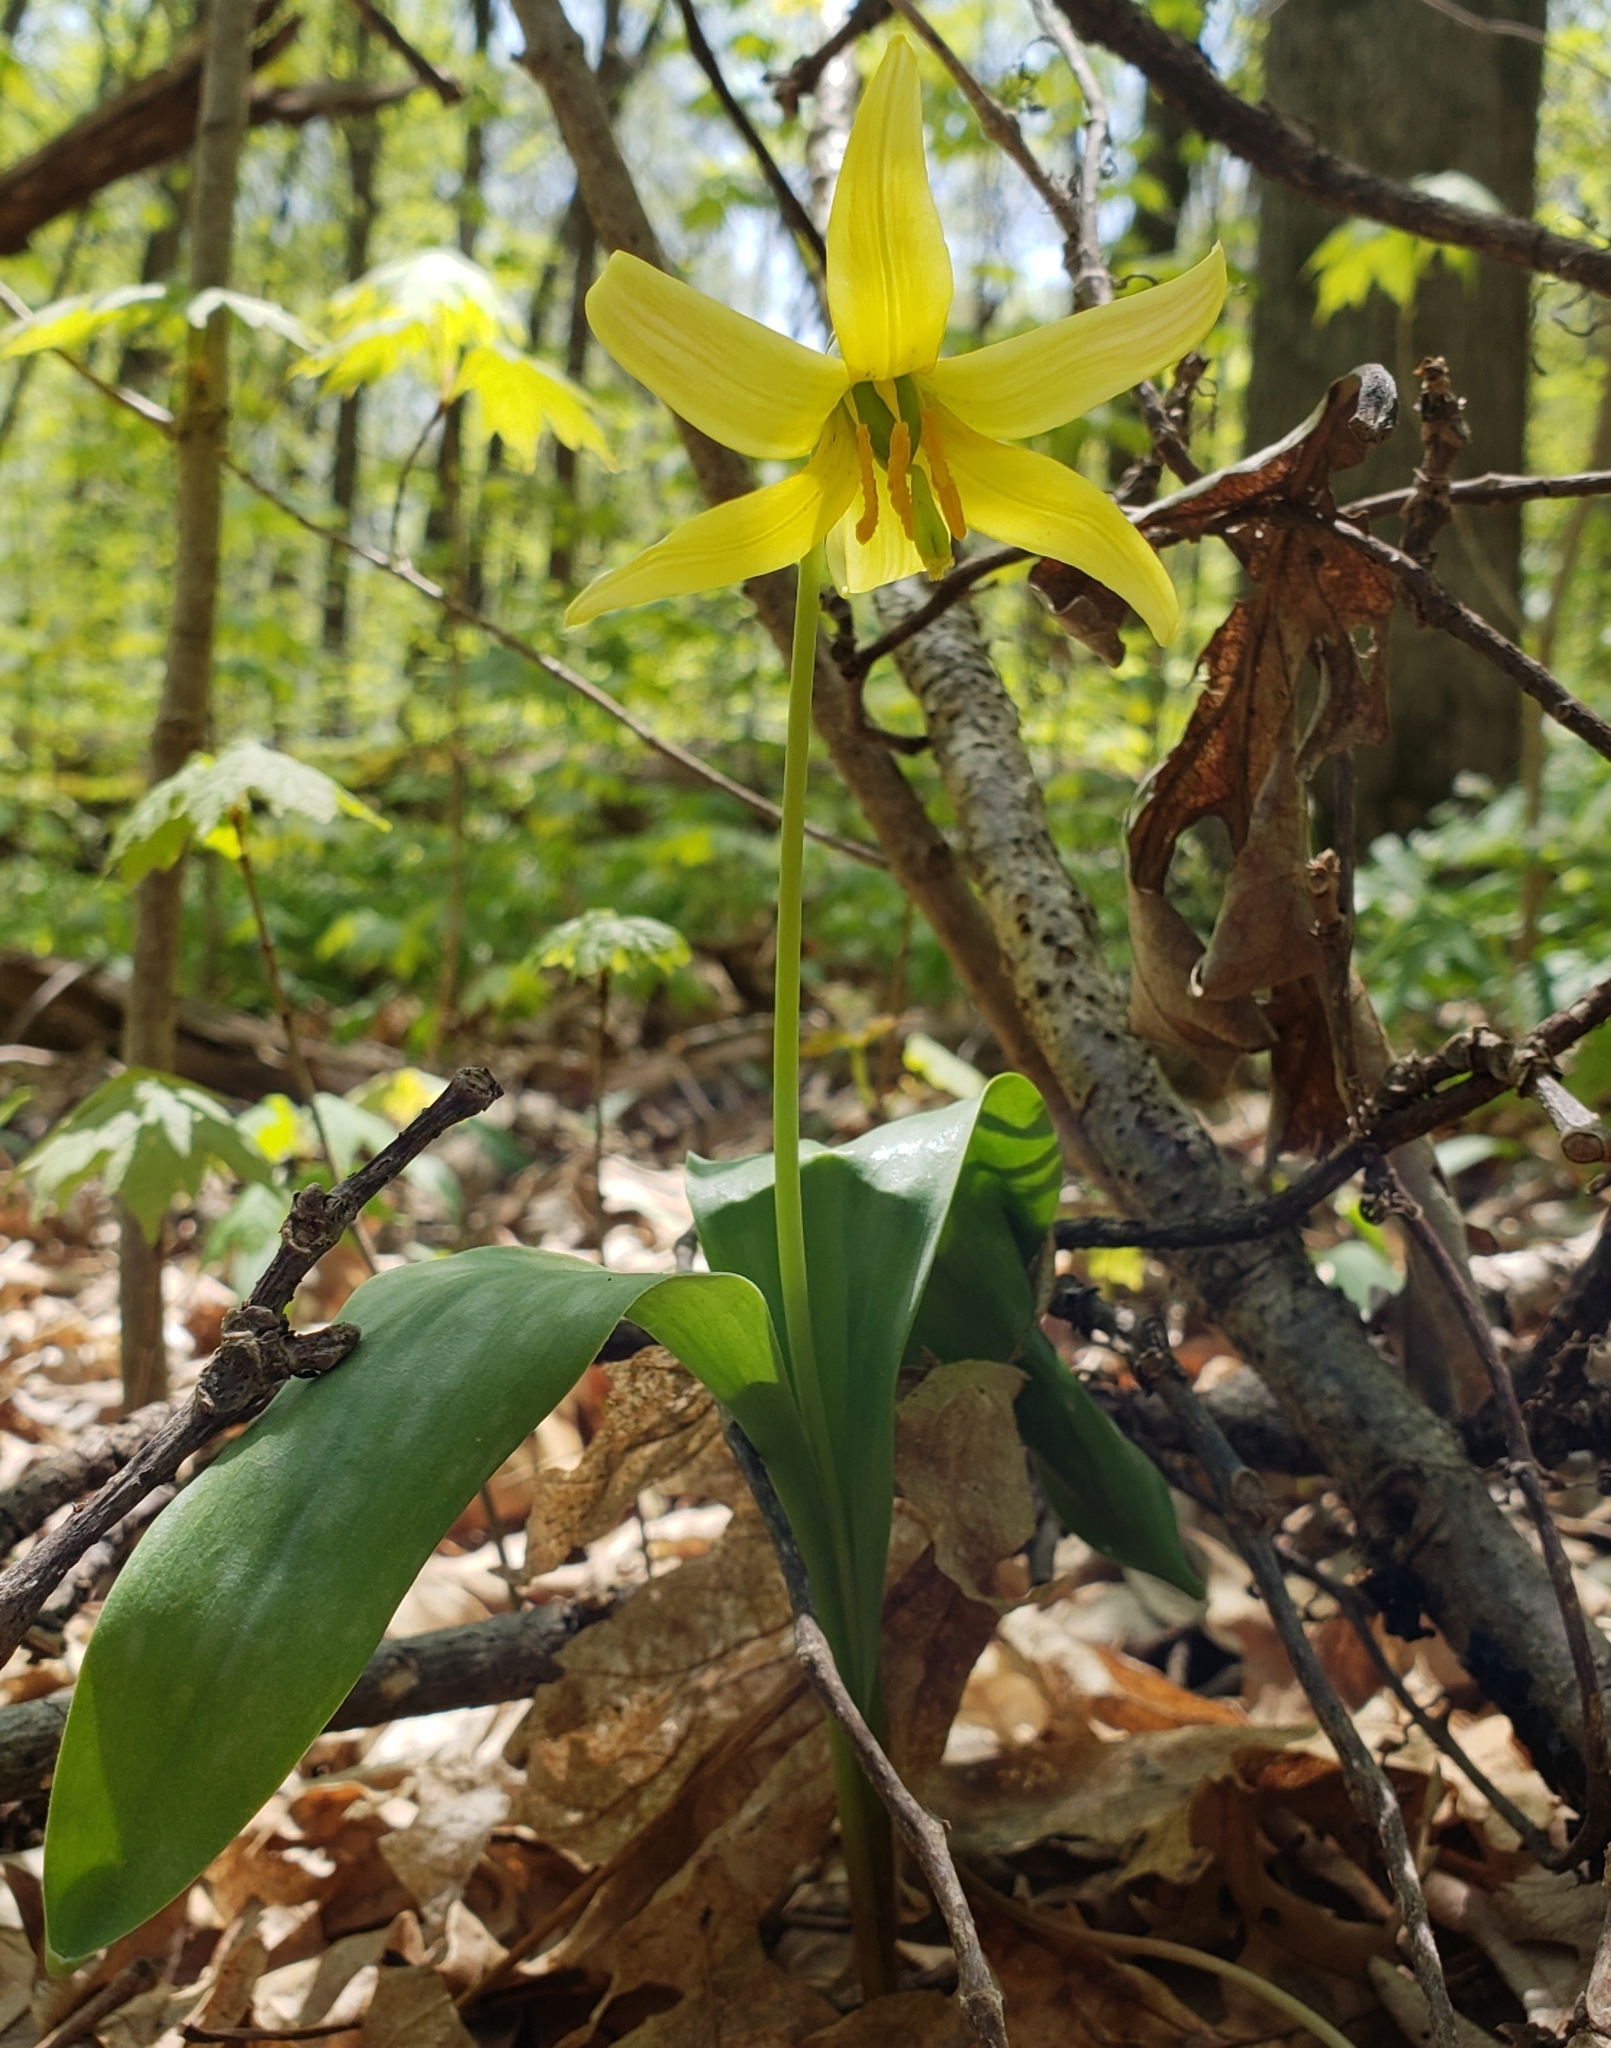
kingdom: Plantae
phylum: Tracheophyta
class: Liliopsida
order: Liliales
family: Liliaceae
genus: Erythronium
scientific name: Erythronium americanum
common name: Yellow adder's-tongue
